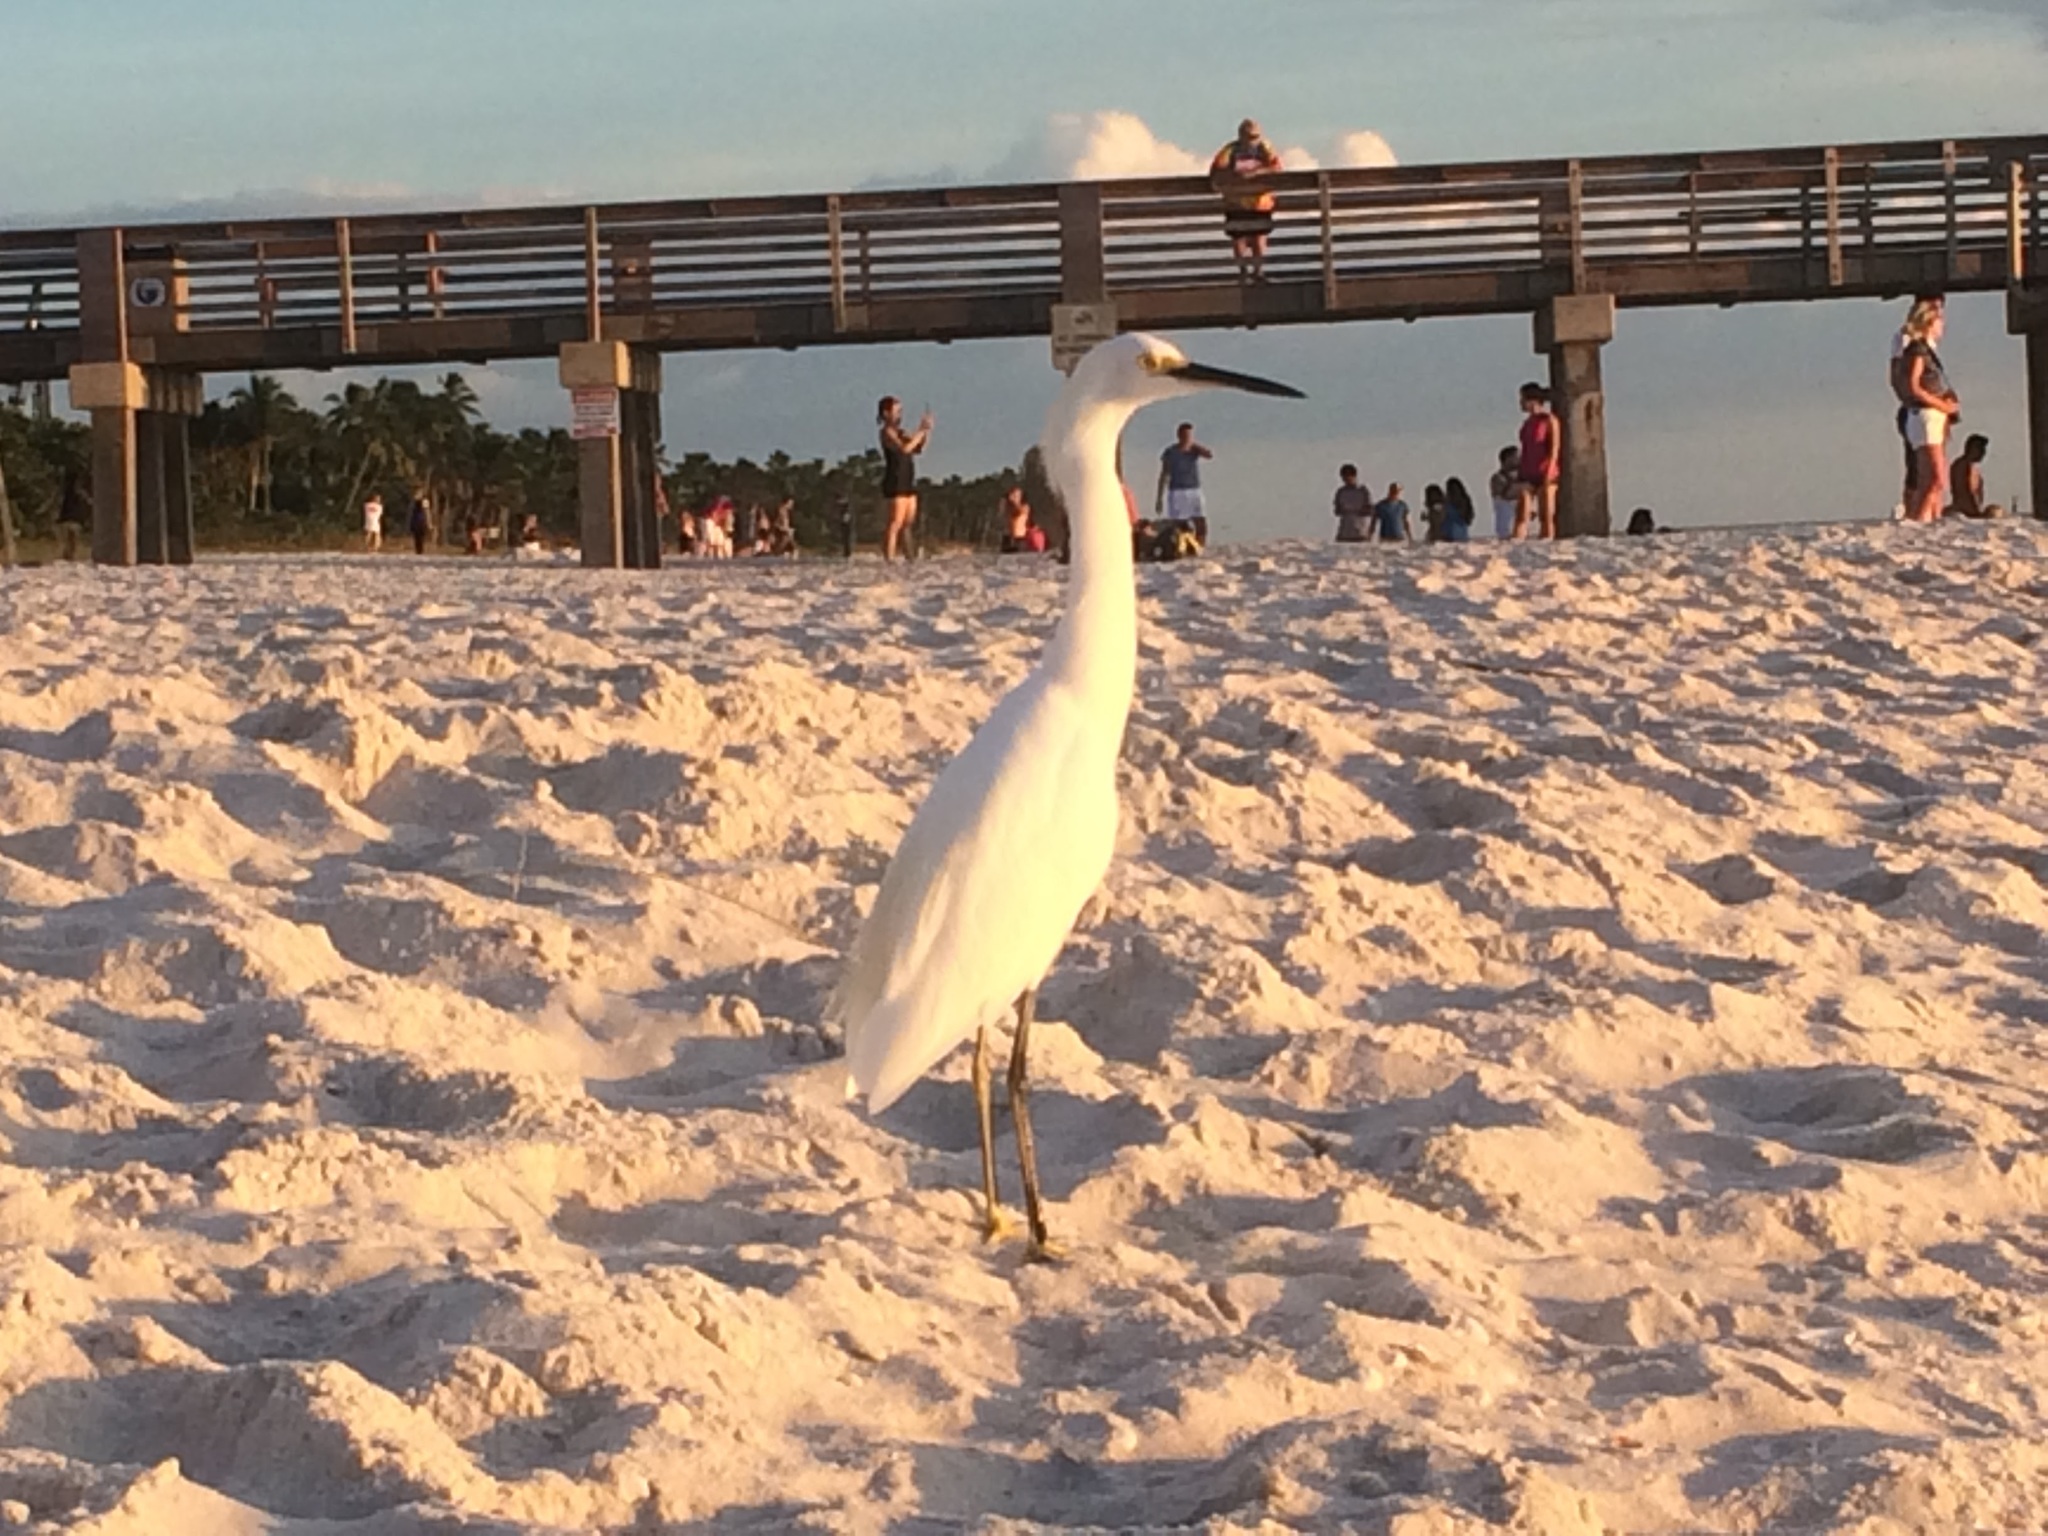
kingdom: Animalia
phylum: Chordata
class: Aves
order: Pelecaniformes
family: Ardeidae
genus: Egretta
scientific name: Egretta thula
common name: Snowy egret
